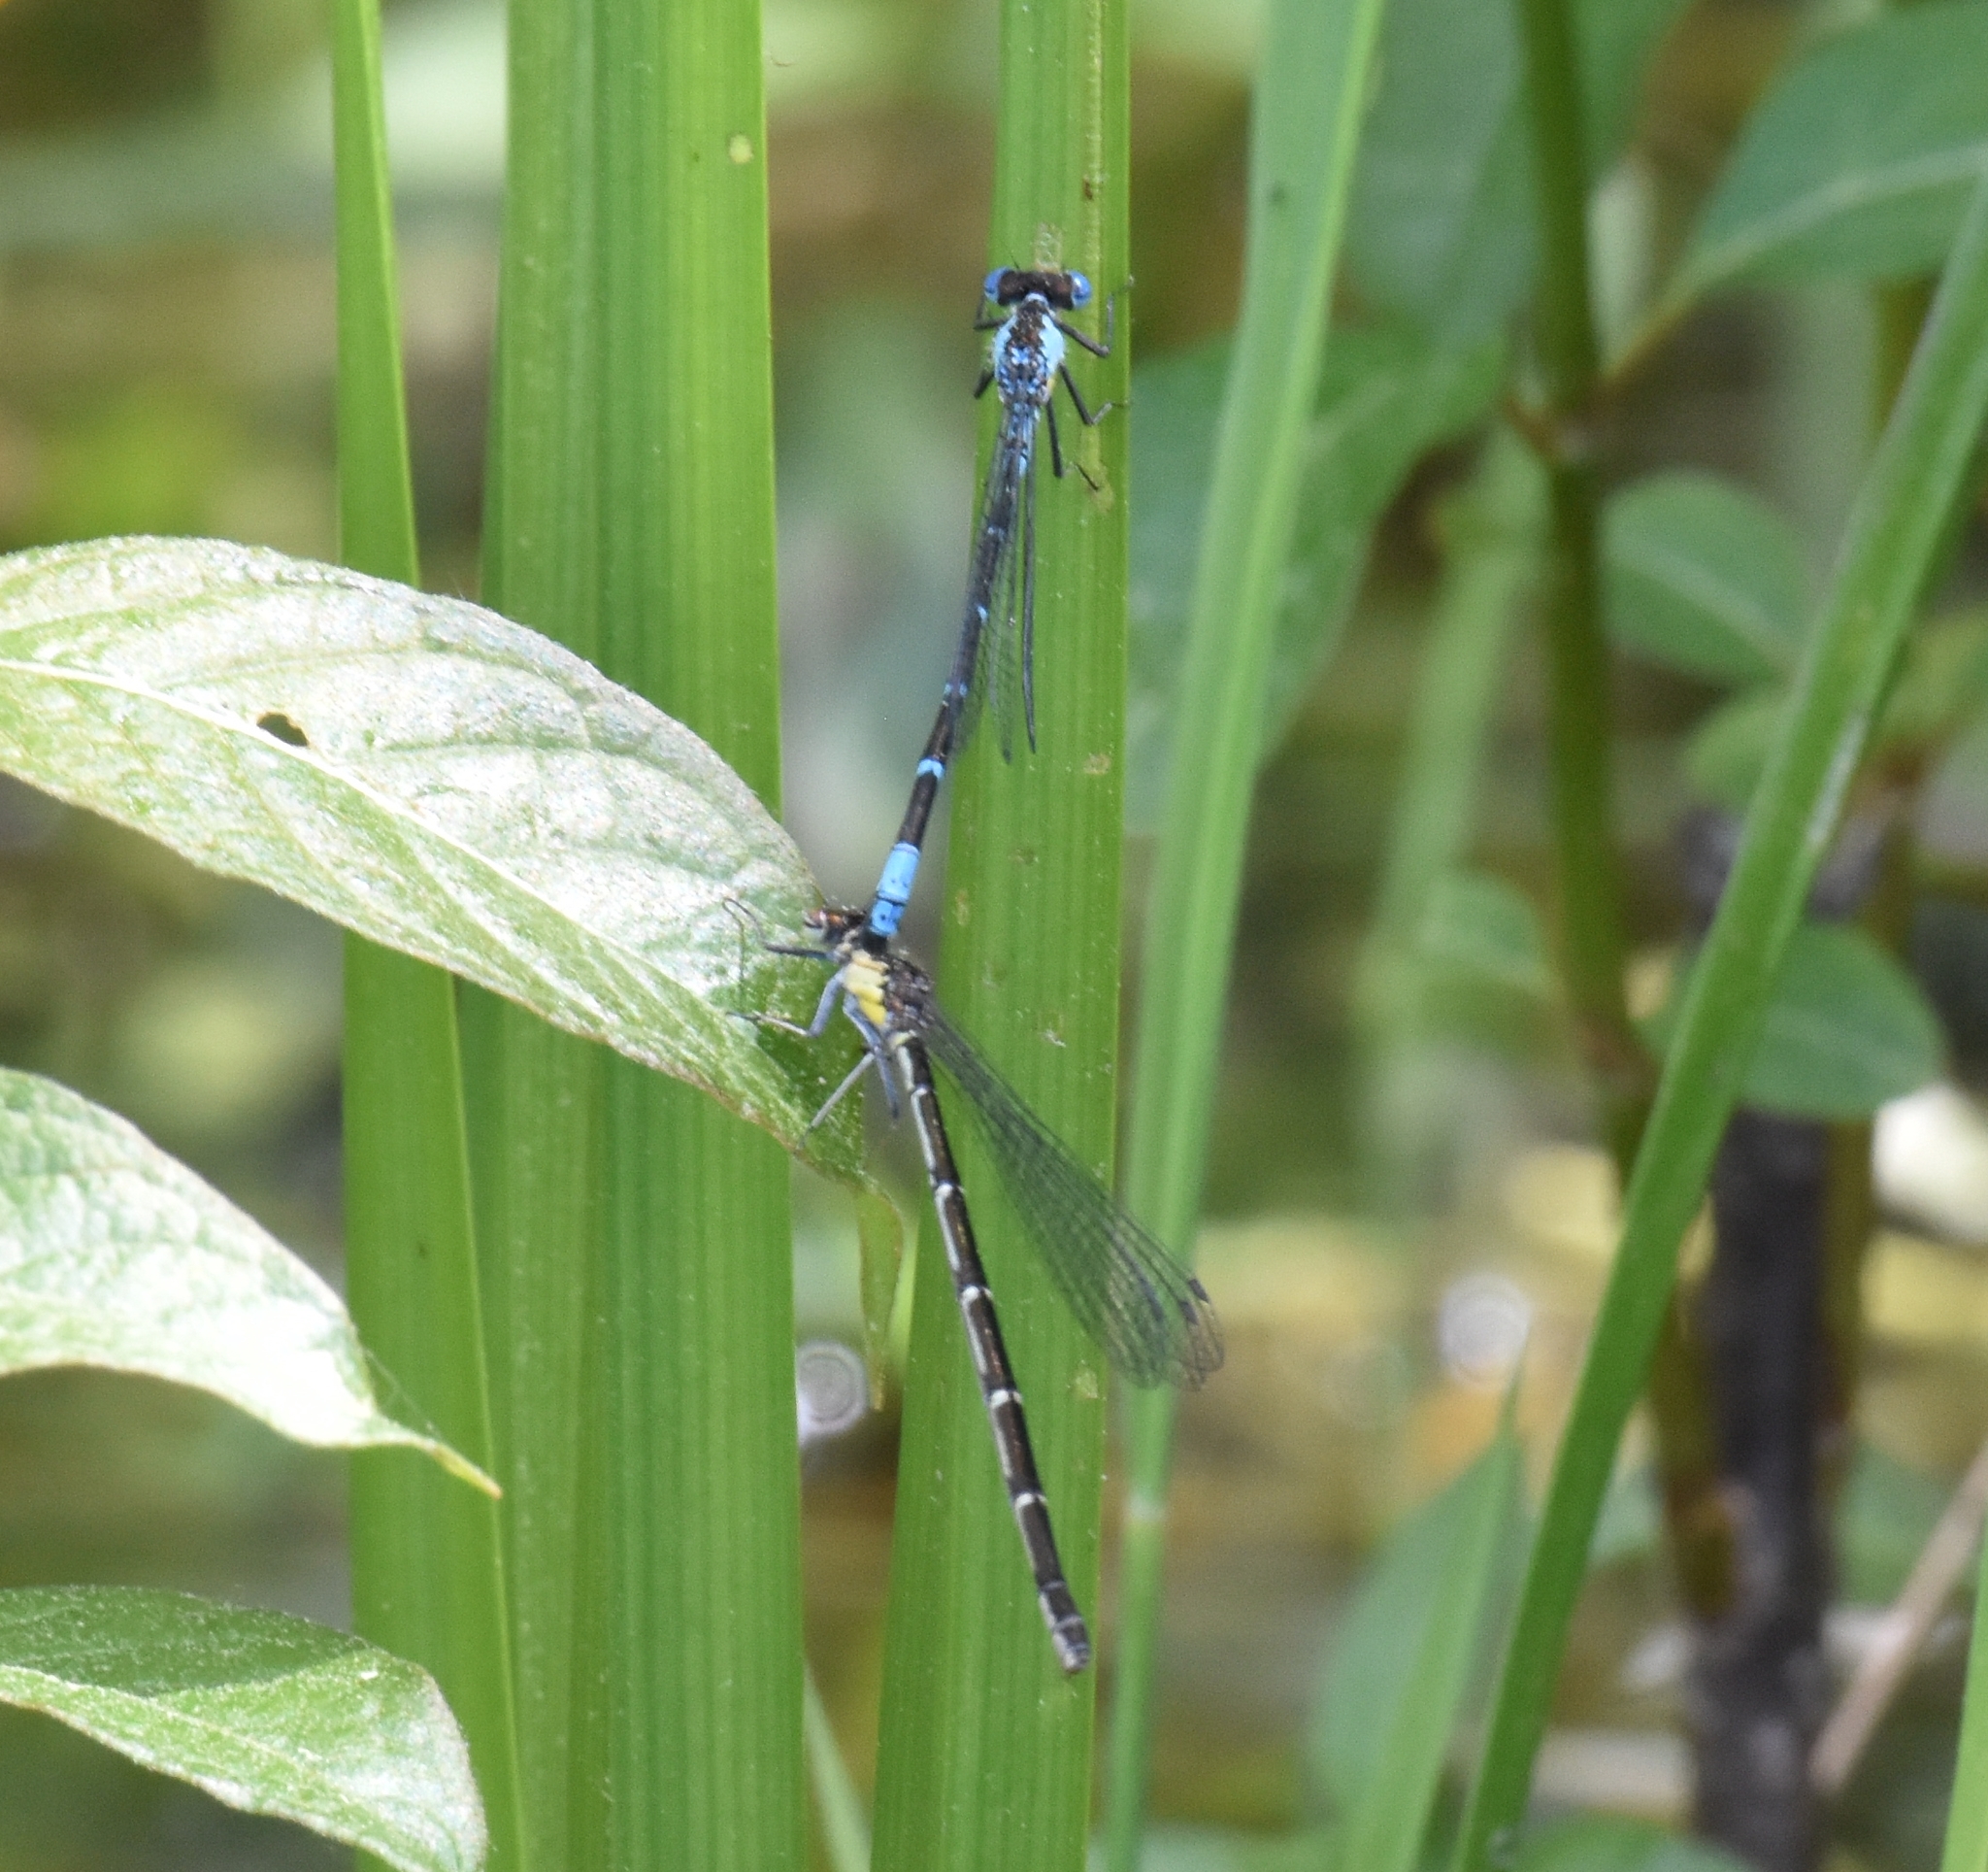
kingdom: Animalia
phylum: Arthropoda
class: Insecta
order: Odonata
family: Coenagrionidae
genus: Chromagrion
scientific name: Chromagrion conditum
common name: Aurora damsel
